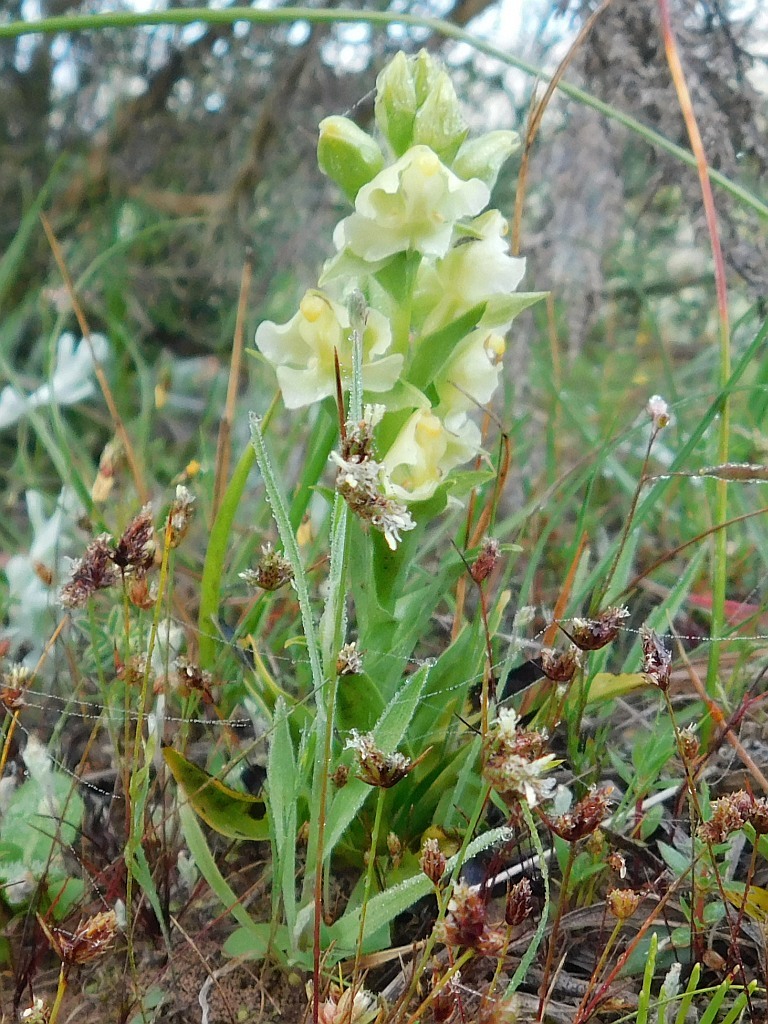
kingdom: Plantae
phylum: Tracheophyta
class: Liliopsida
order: Asparagales
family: Orchidaceae
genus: Pterygodium
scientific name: Pterygodium alatum
